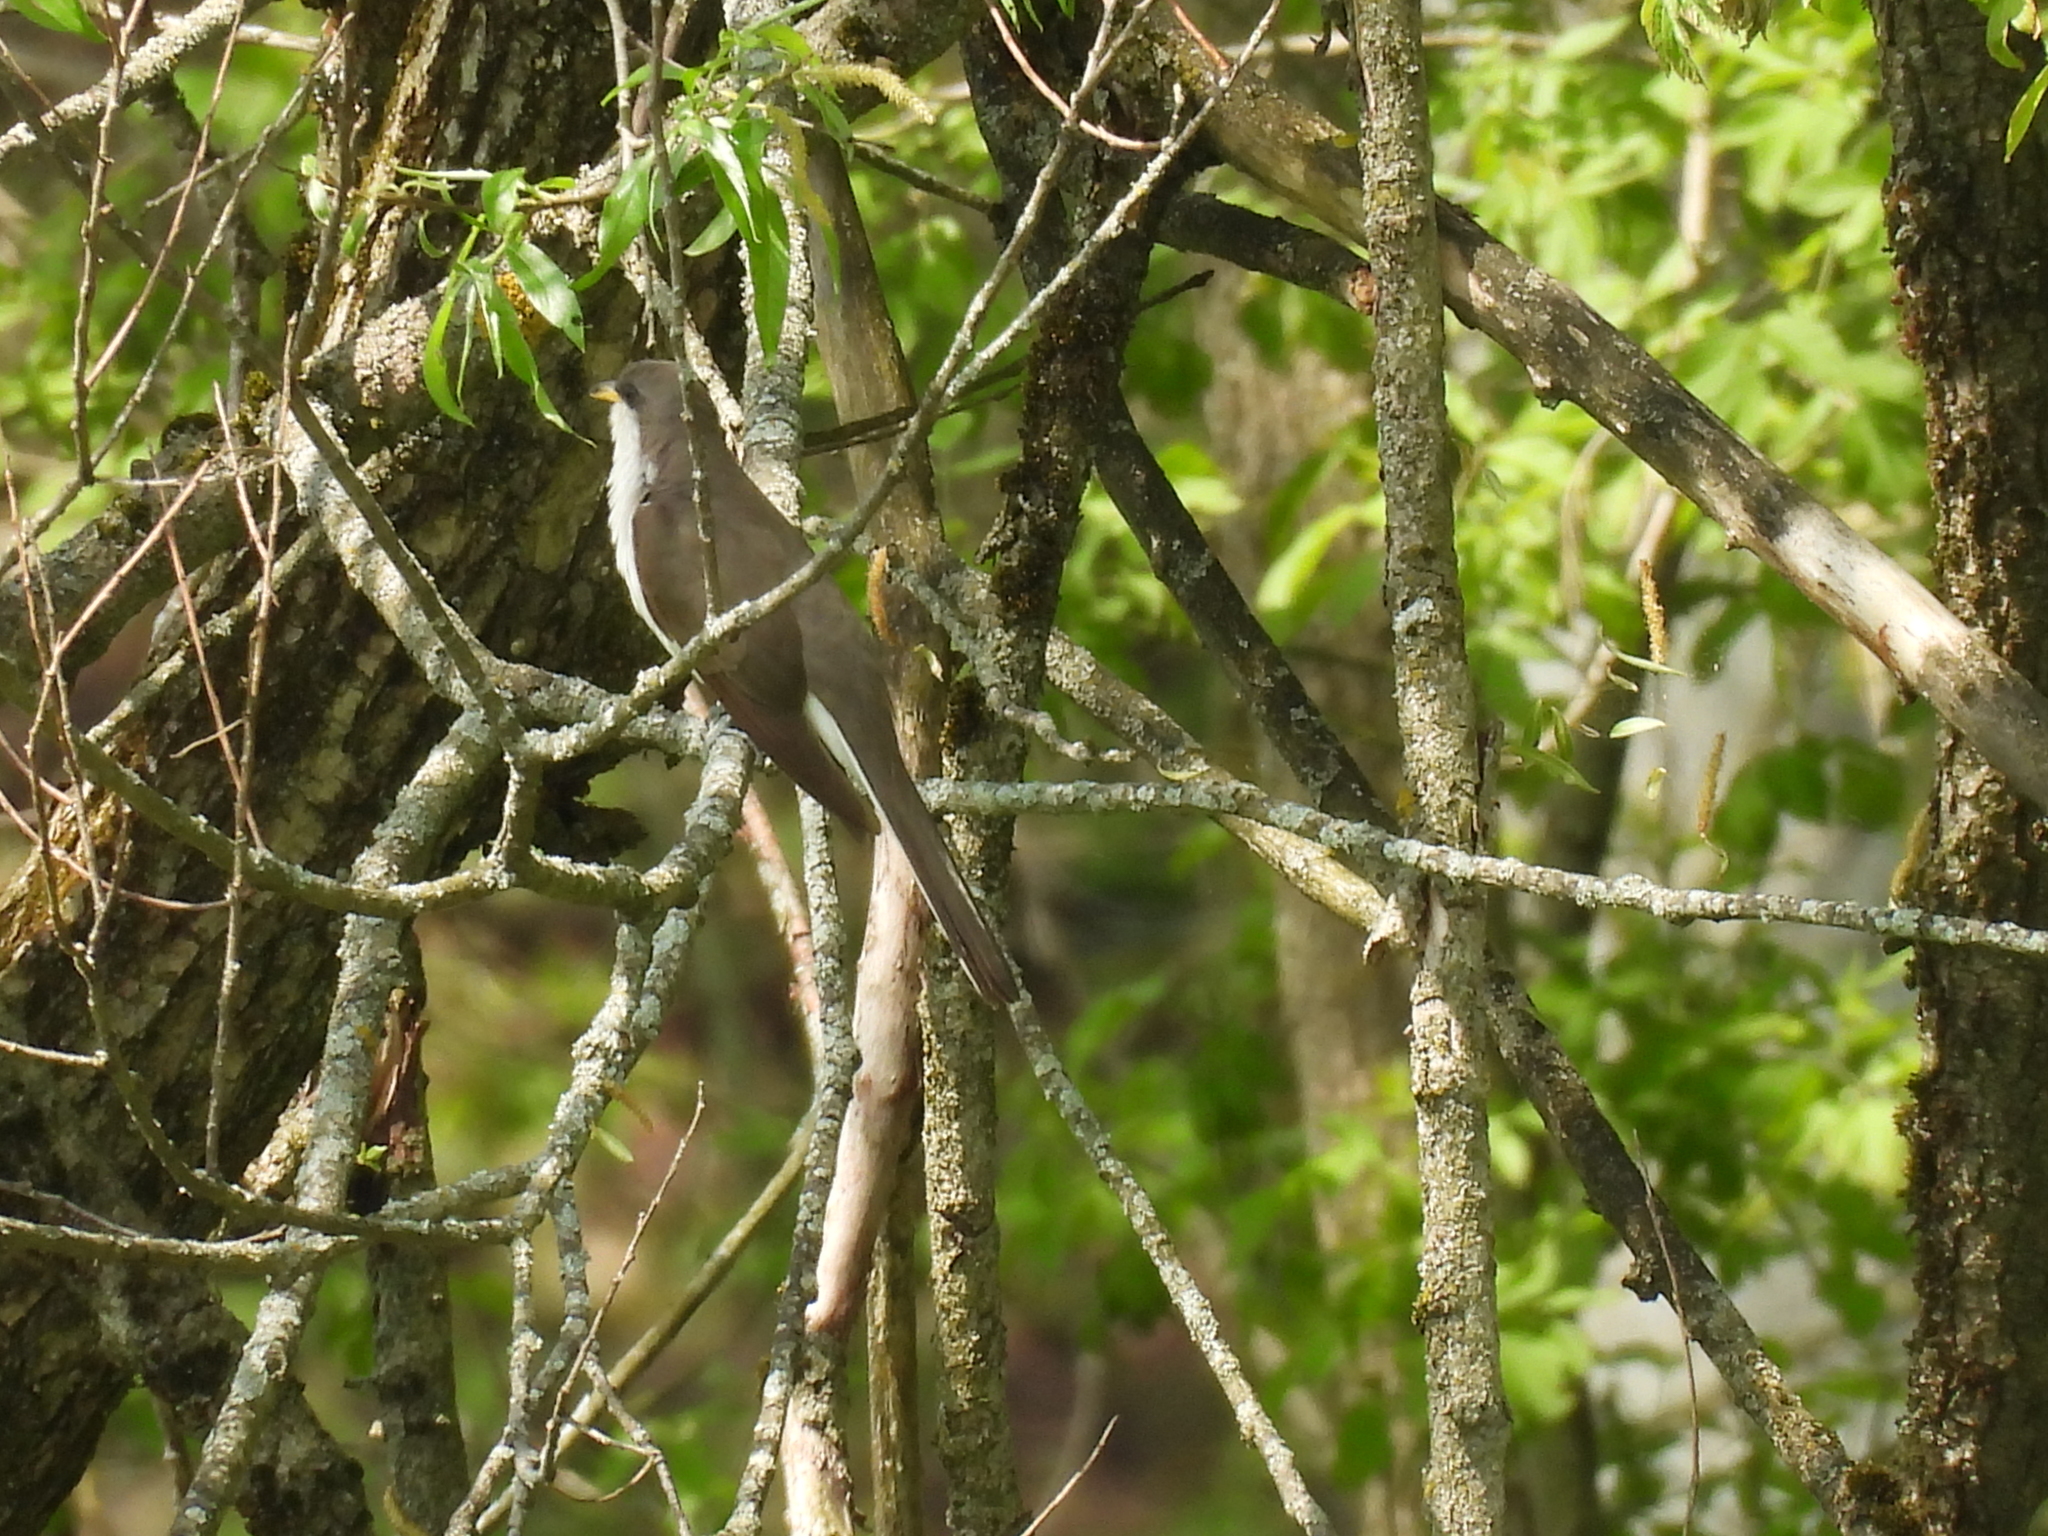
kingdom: Animalia
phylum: Chordata
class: Aves
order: Cuculiformes
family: Cuculidae
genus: Coccyzus
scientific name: Coccyzus americanus
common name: Yellow-billed cuckoo
